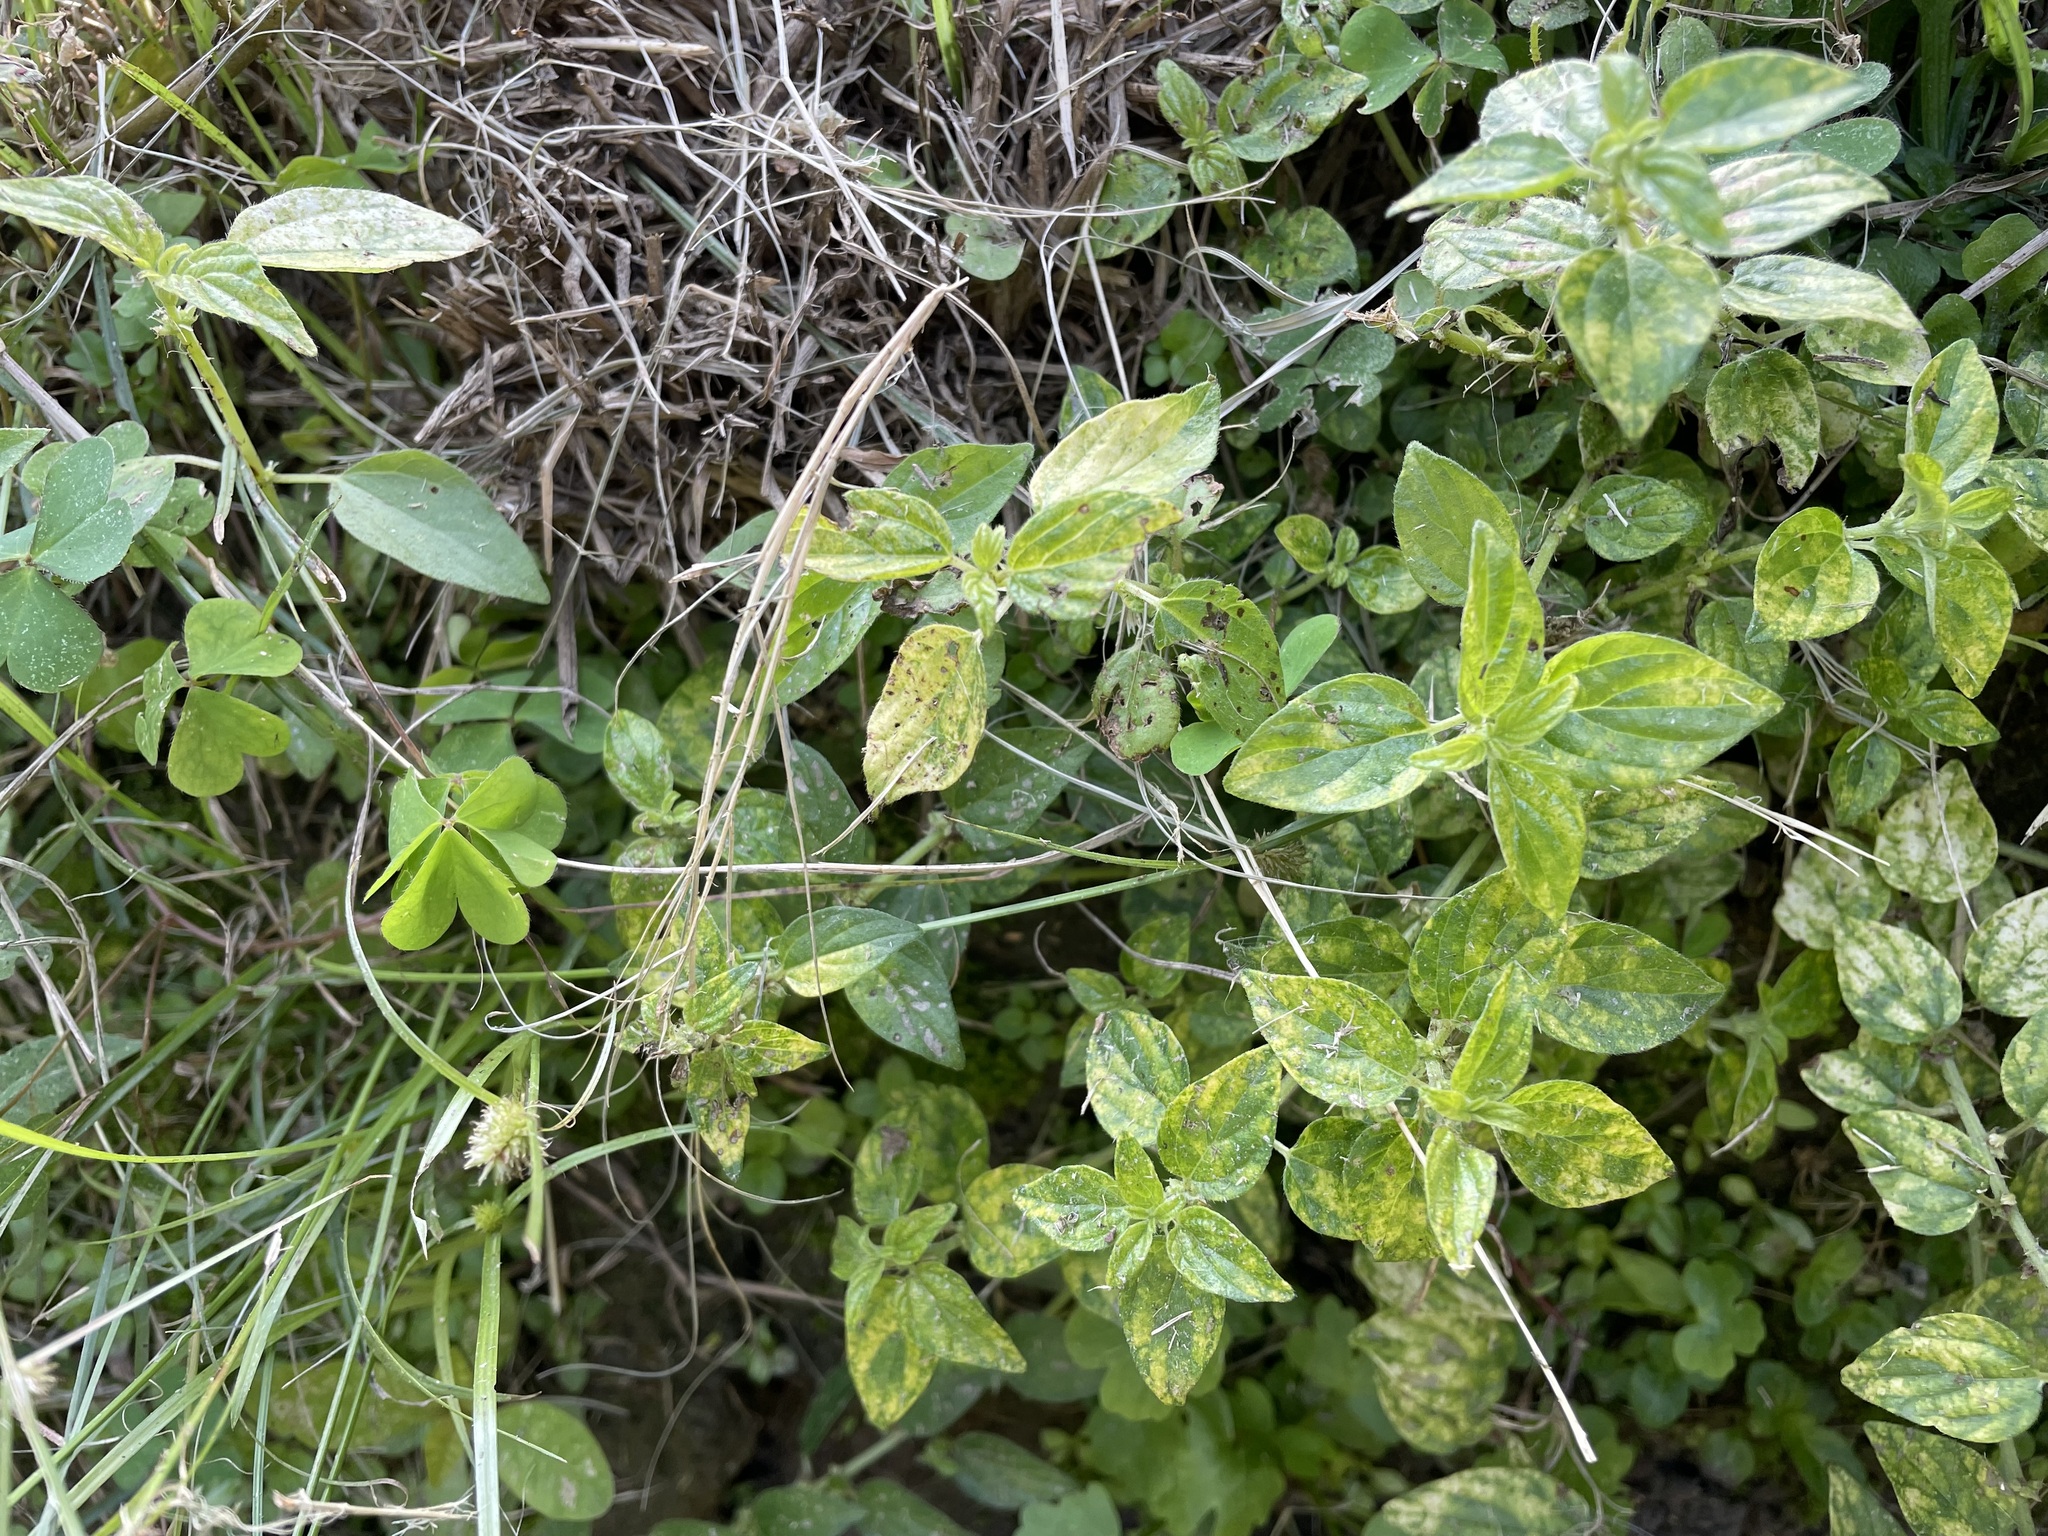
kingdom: Plantae
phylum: Tracheophyta
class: Magnoliopsida
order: Rosales
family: Urticaceae
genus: Pouzolzia
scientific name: Pouzolzia zeylanica
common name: Graceful pouzolzsbush
